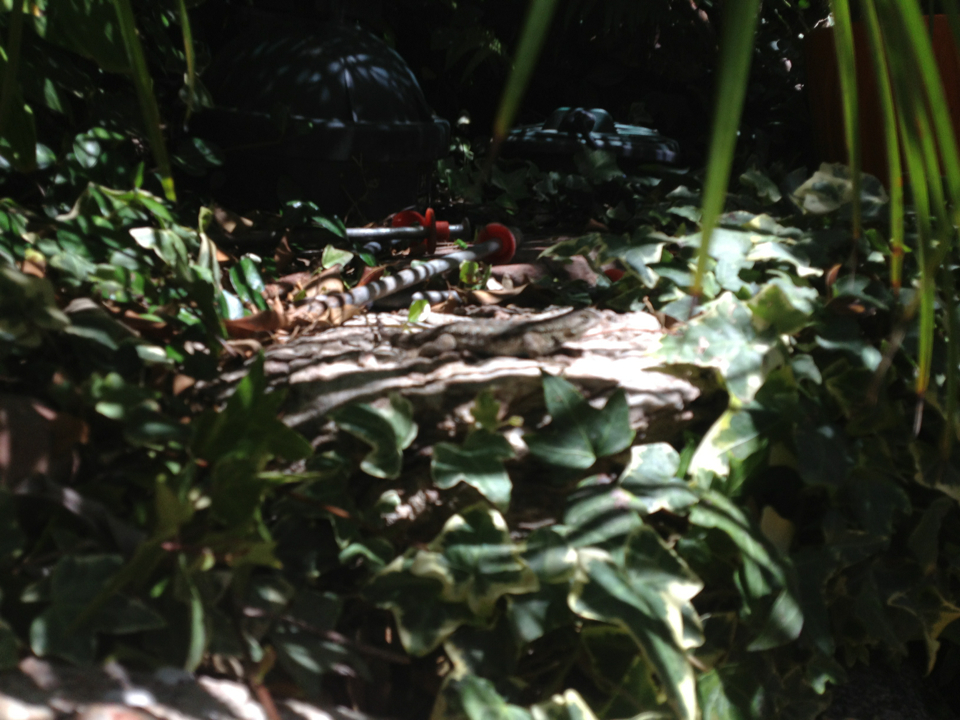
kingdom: Animalia
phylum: Chordata
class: Squamata
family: Phrynosomatidae
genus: Sceloporus
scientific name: Sceloporus occidentalis
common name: Western fence lizard
